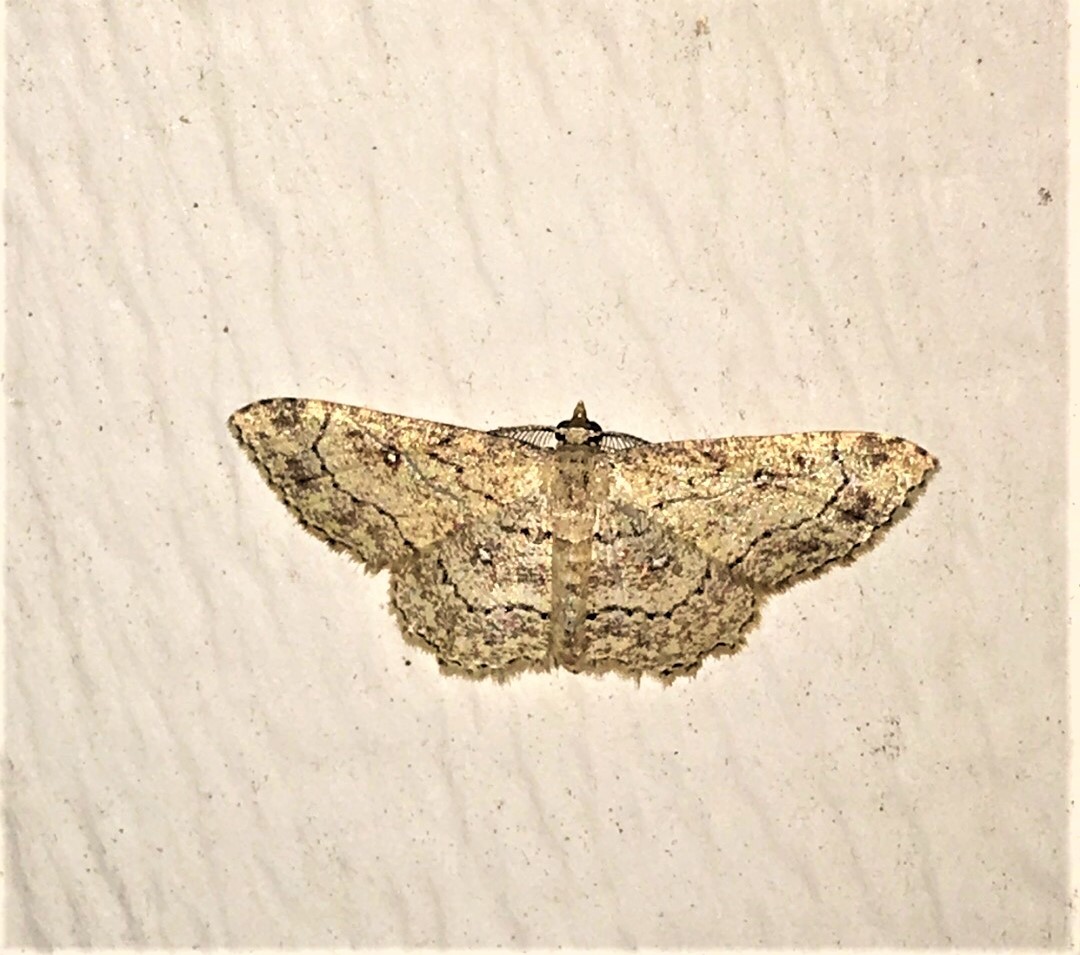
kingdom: Animalia
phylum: Arthropoda
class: Insecta
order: Lepidoptera
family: Geometridae
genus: Cyclophora
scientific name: Cyclophora nanaria
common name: Cankerworm
